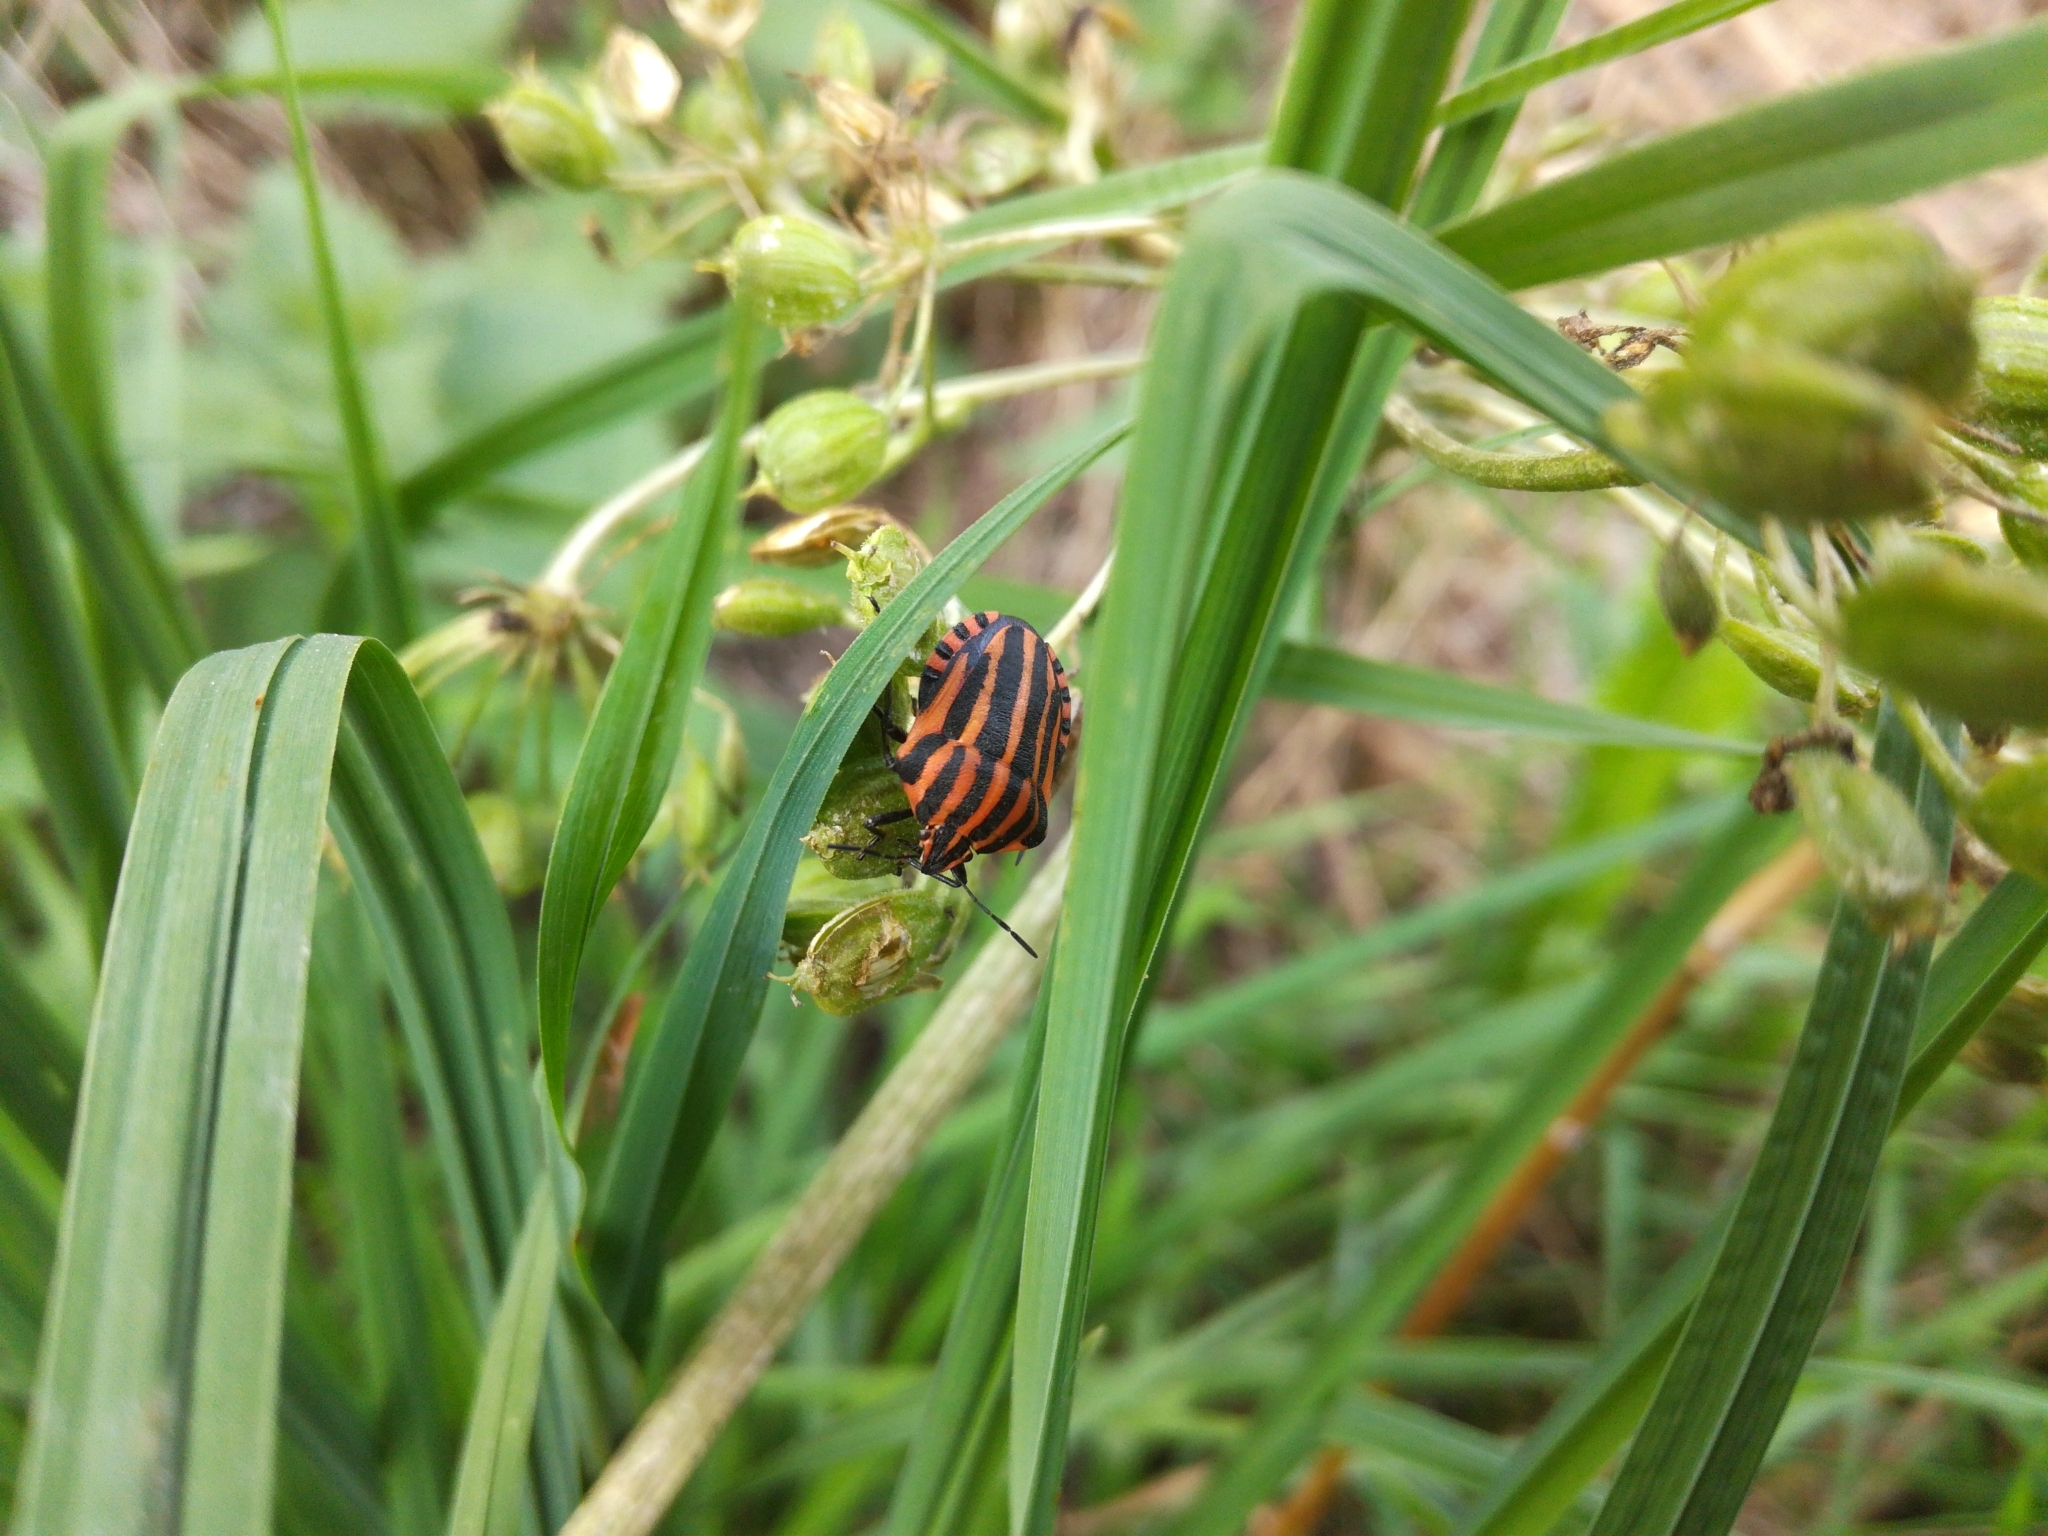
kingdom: Animalia
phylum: Arthropoda
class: Insecta
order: Hemiptera
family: Pentatomidae
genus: Graphosoma
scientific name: Graphosoma italicum
